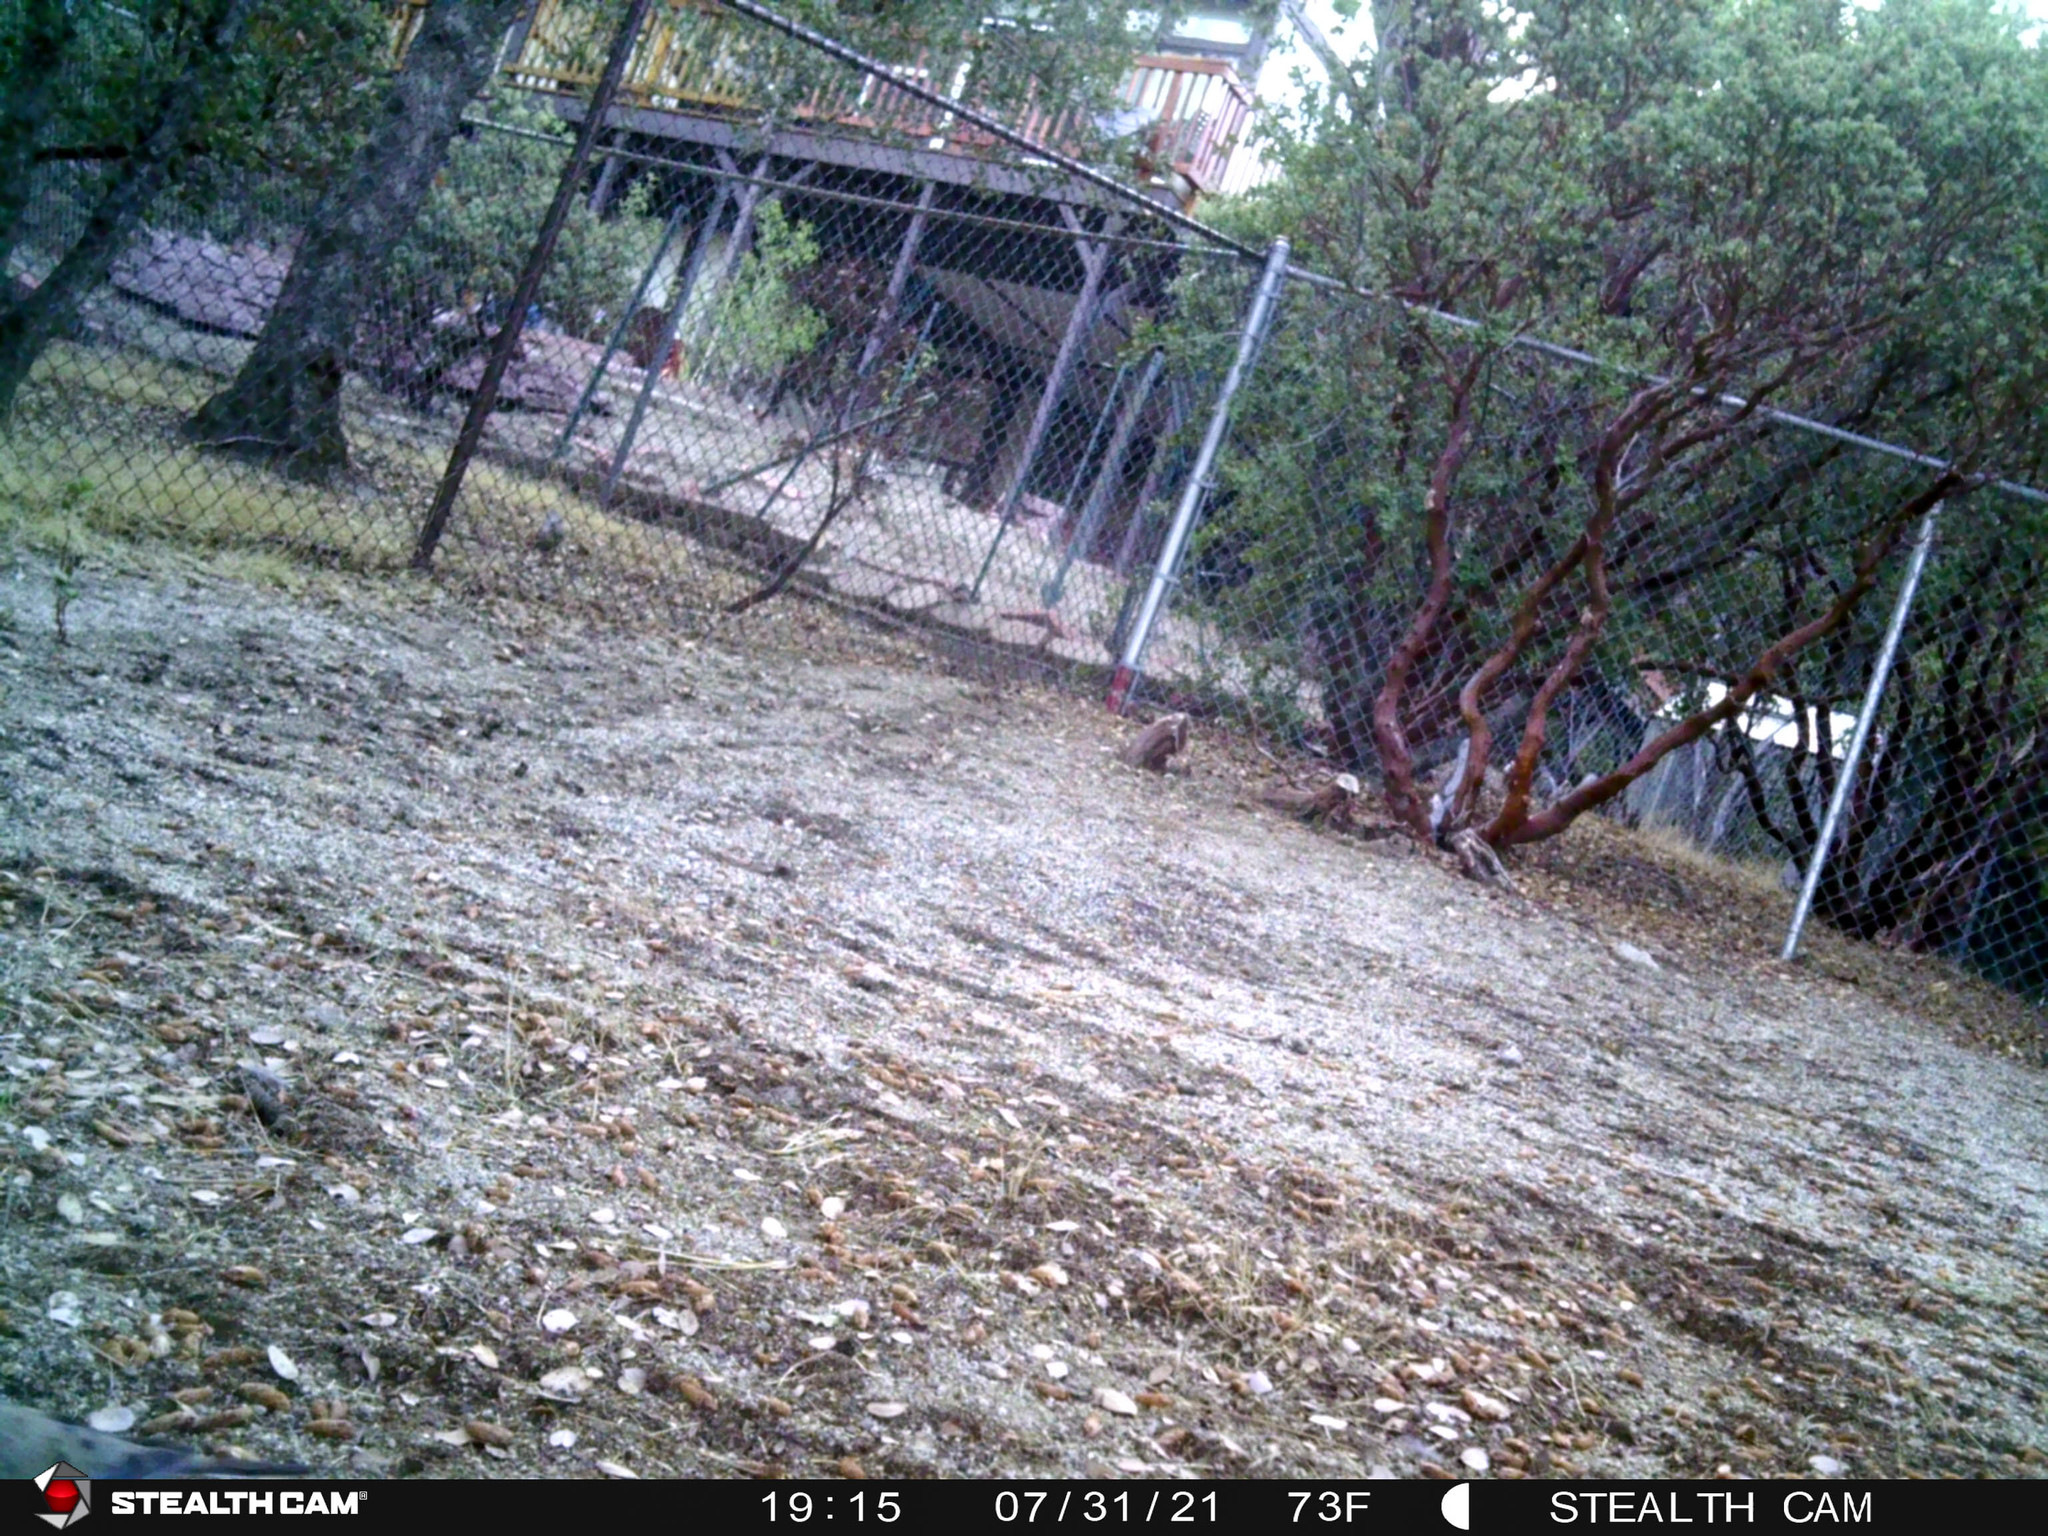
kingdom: Animalia
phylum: Chordata
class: Aves
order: Columbiformes
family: Columbidae
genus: Zenaida
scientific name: Zenaida macroura
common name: Mourning dove
